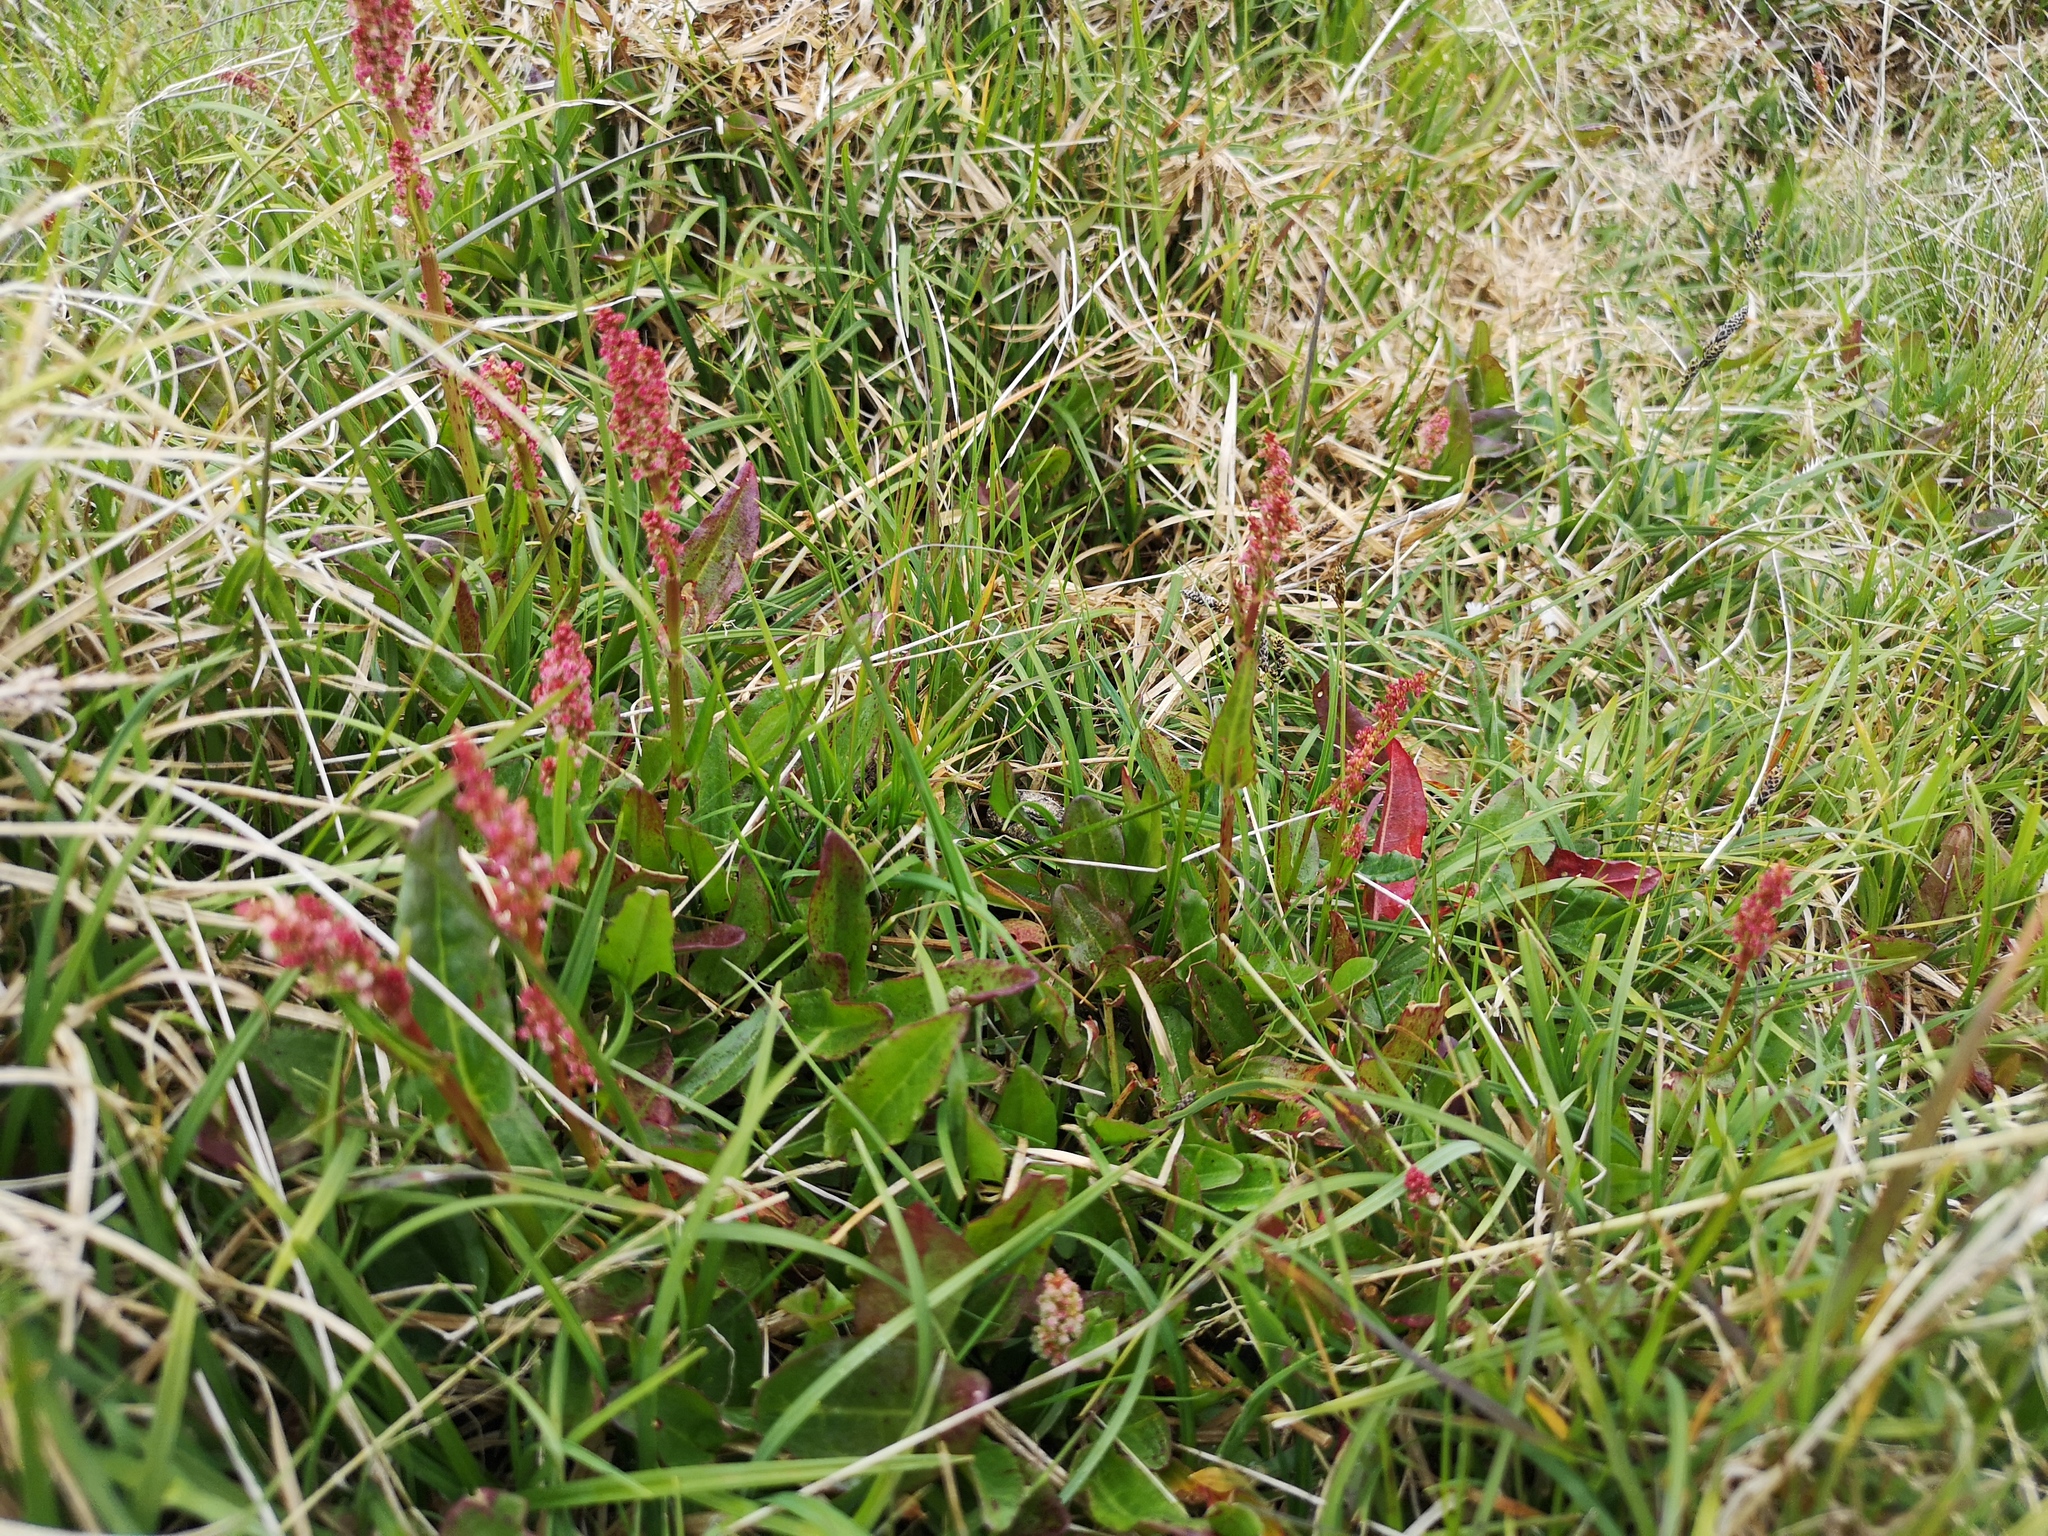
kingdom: Plantae
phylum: Tracheophyta
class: Magnoliopsida
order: Caryophyllales
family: Polygonaceae
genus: Rumex
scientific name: Rumex acetosa
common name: Garden sorrel
